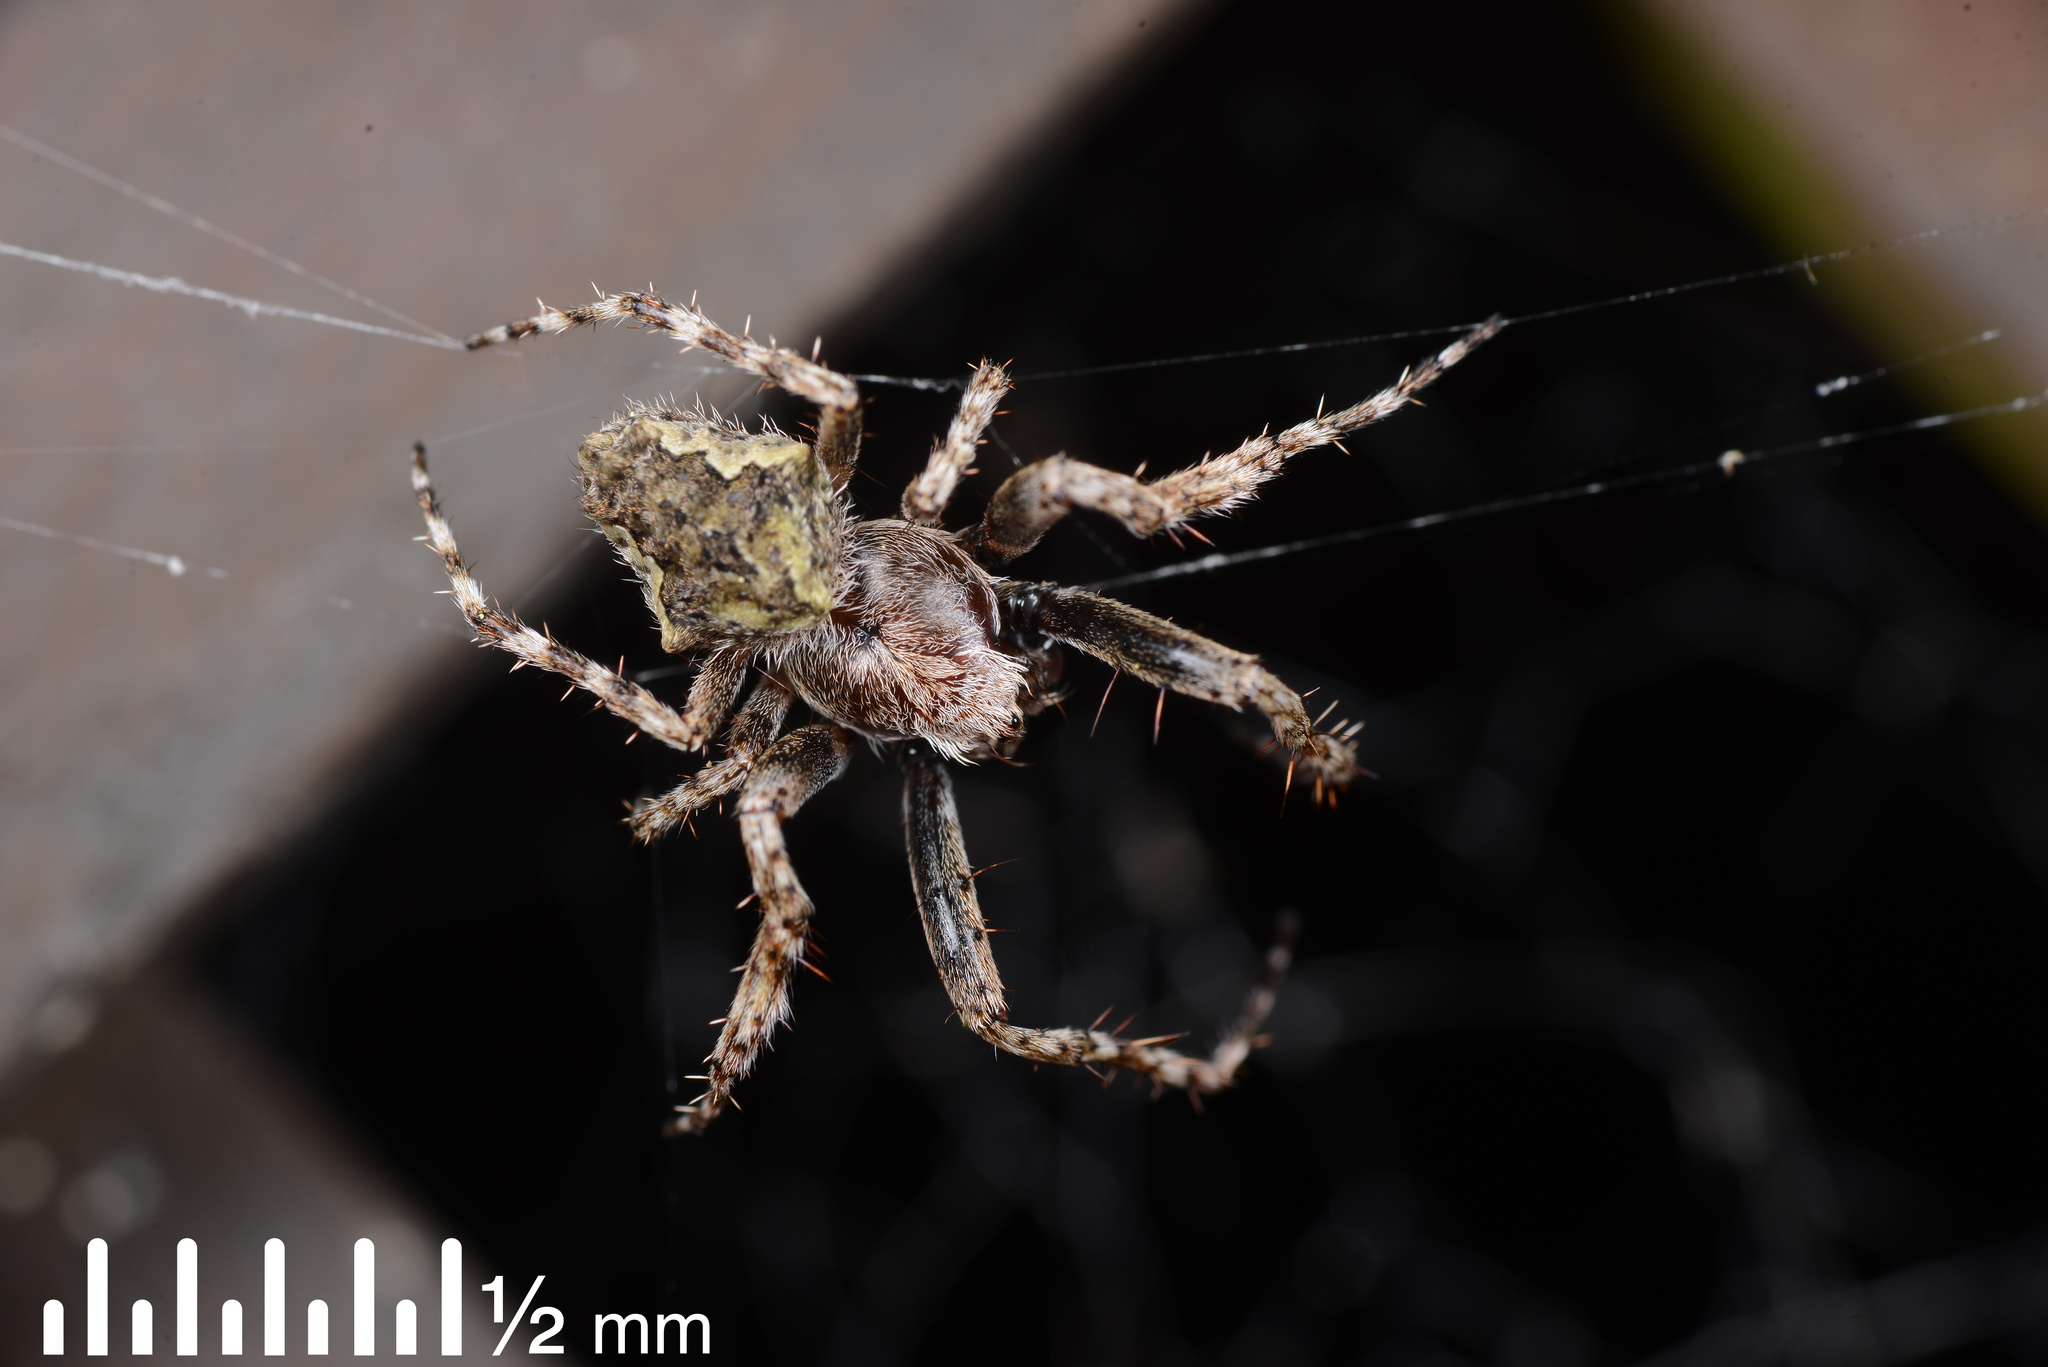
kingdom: Animalia
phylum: Arthropoda
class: Arachnida
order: Araneae
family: Araneidae
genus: Eriophora
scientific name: Eriophora pustulosa
